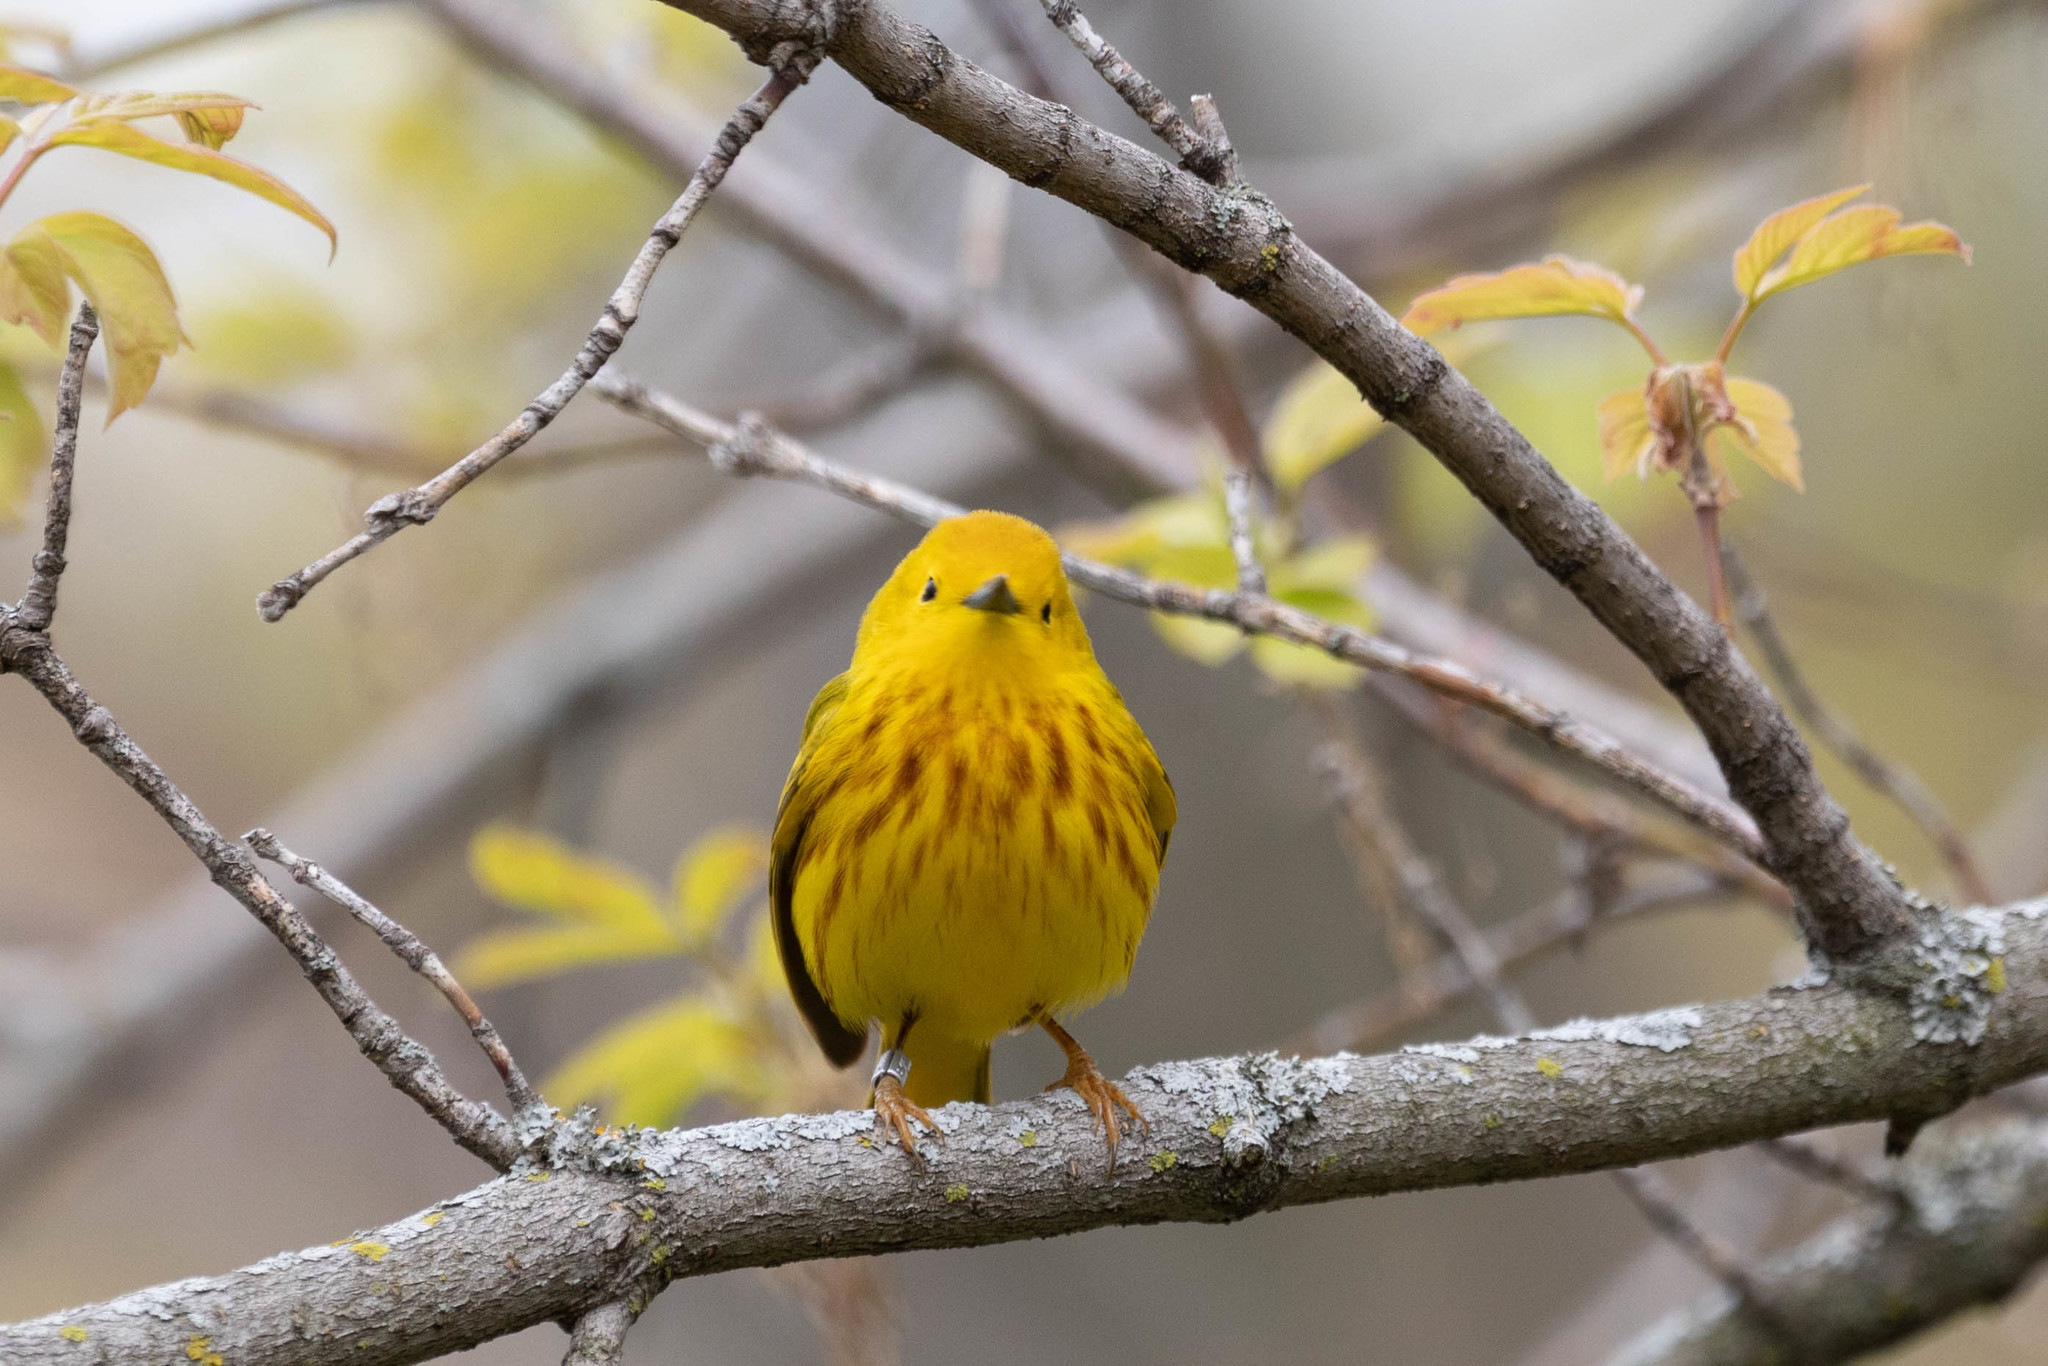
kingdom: Animalia
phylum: Chordata
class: Aves
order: Passeriformes
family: Parulidae
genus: Setophaga
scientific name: Setophaga petechia
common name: Yellow warbler
